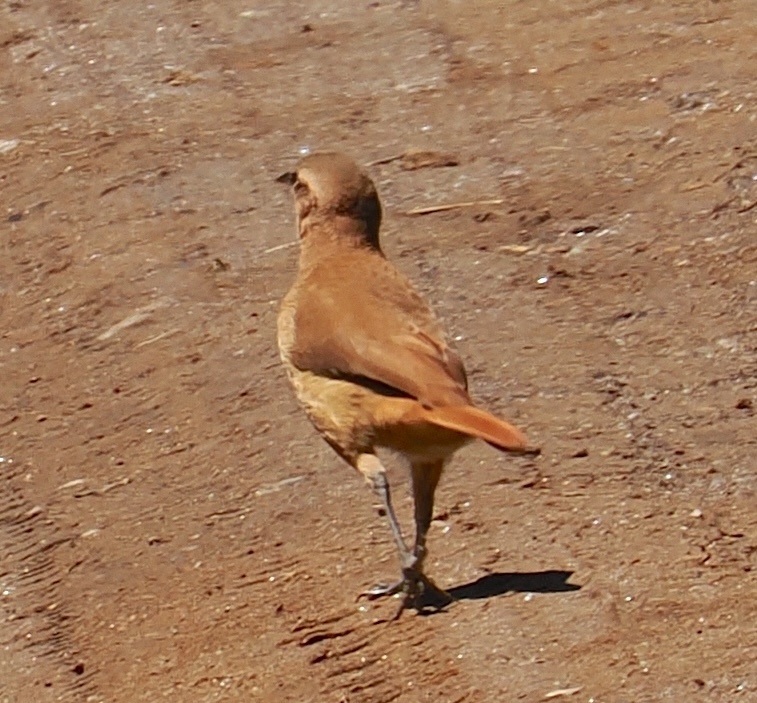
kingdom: Animalia
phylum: Chordata
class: Aves
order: Passeriformes
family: Furnariidae
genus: Furnarius
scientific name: Furnarius rufus
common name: Rufous hornero
